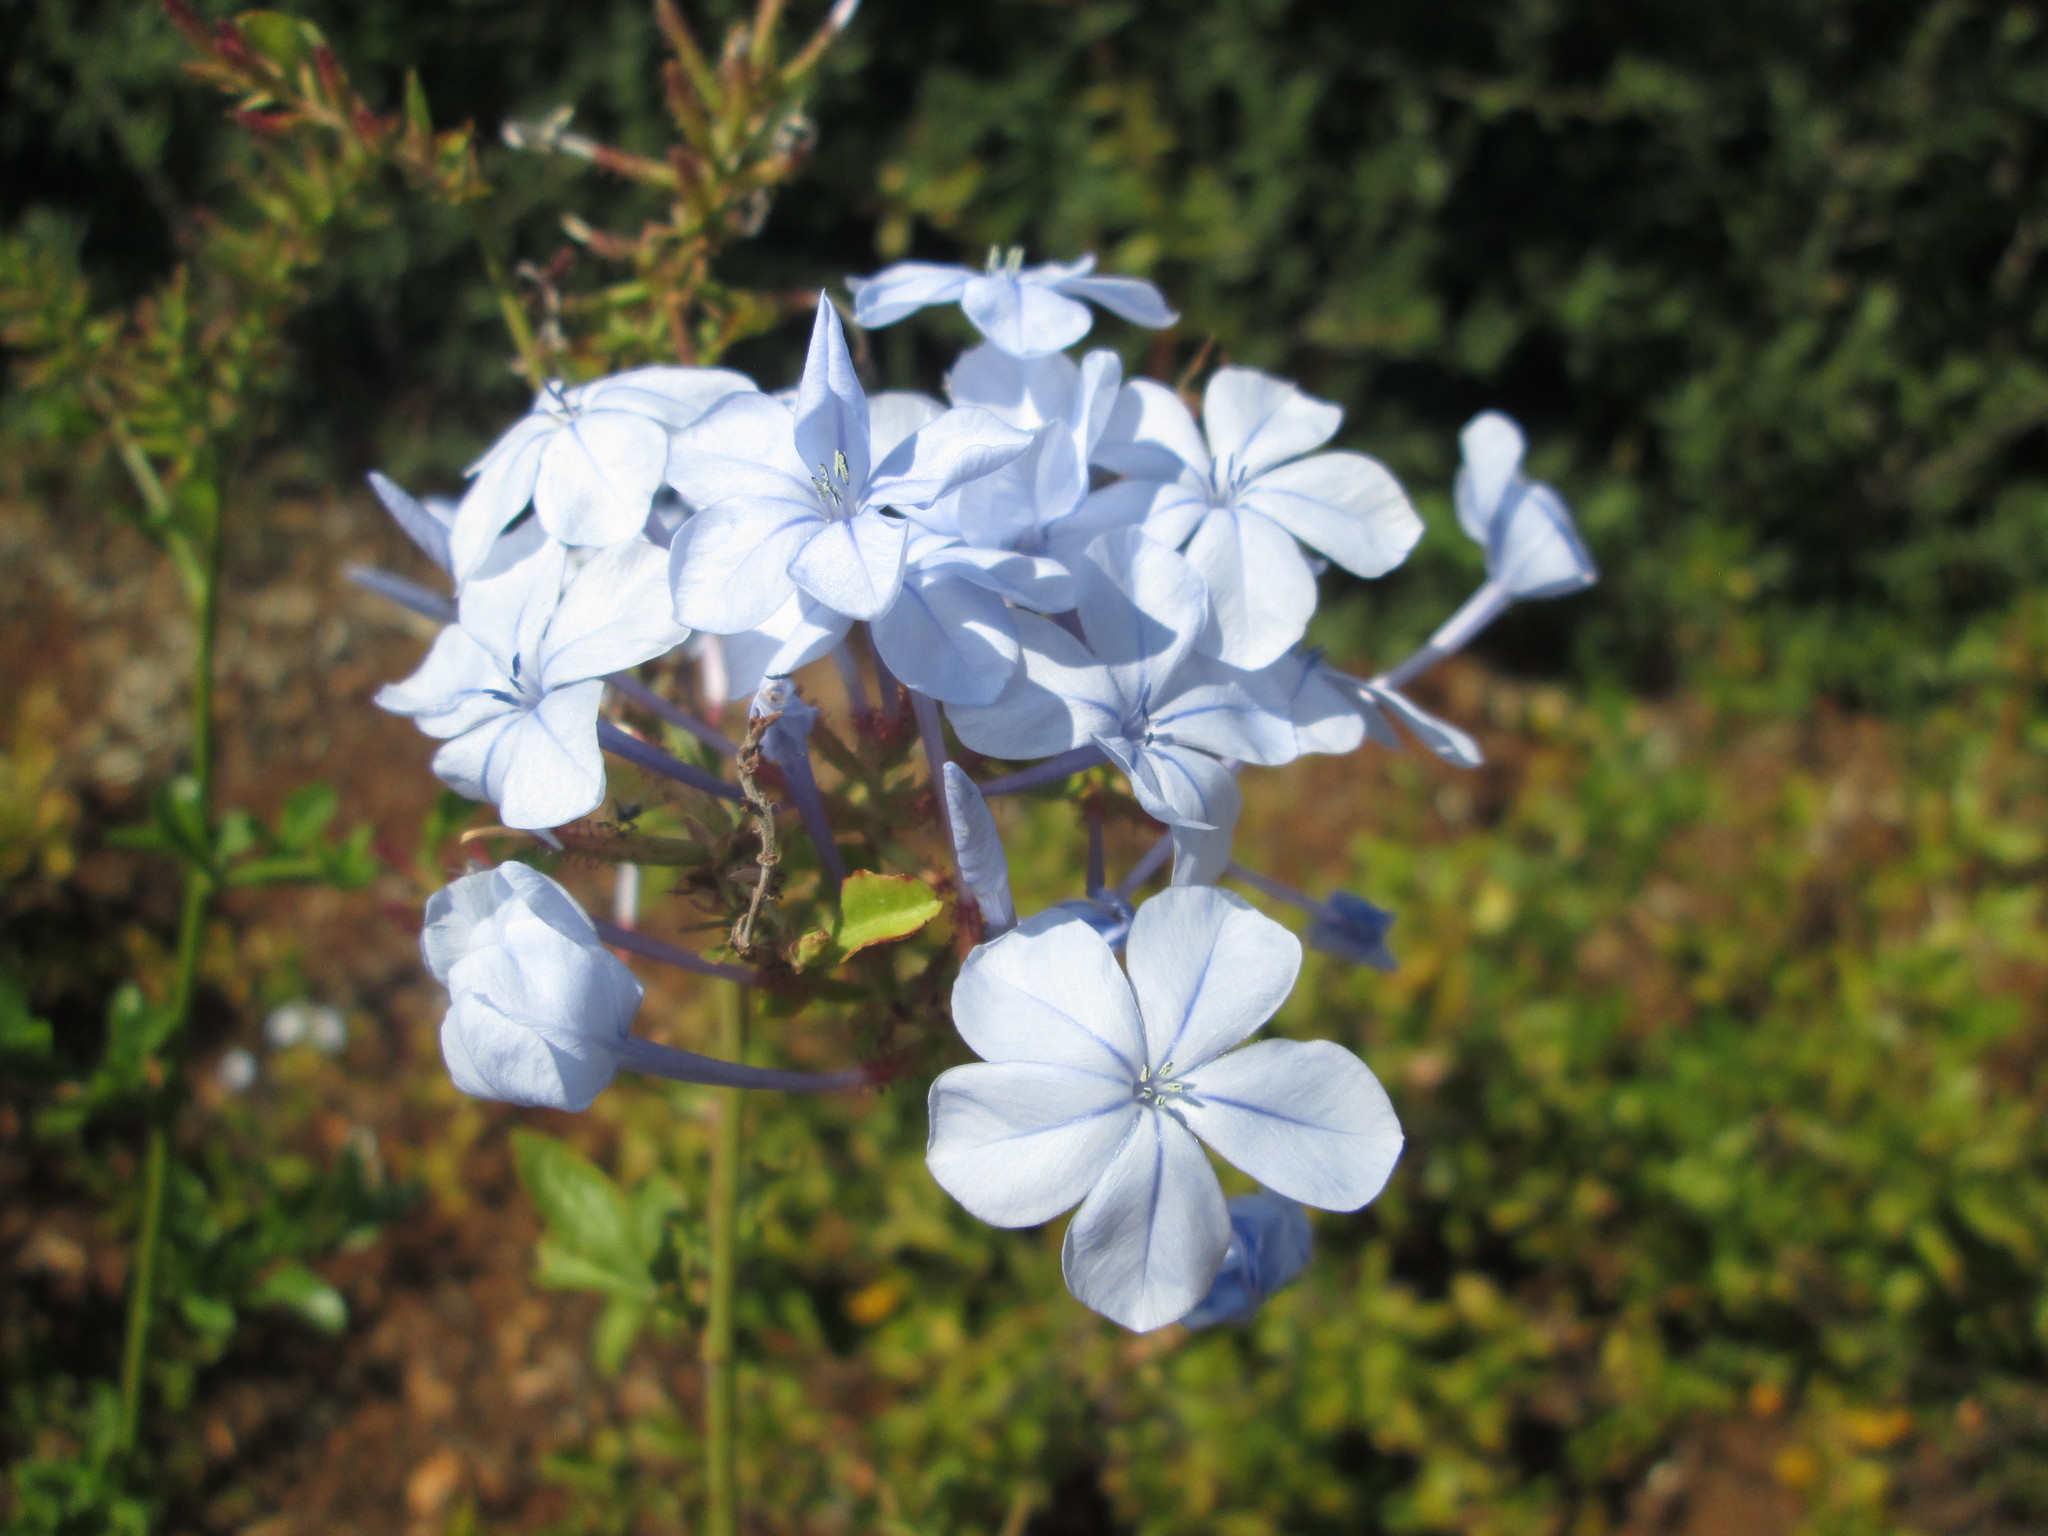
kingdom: Plantae
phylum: Tracheophyta
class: Magnoliopsida
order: Caryophyllales
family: Plumbaginaceae
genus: Plumbago
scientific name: Plumbago auriculata
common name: Cape leadwort
